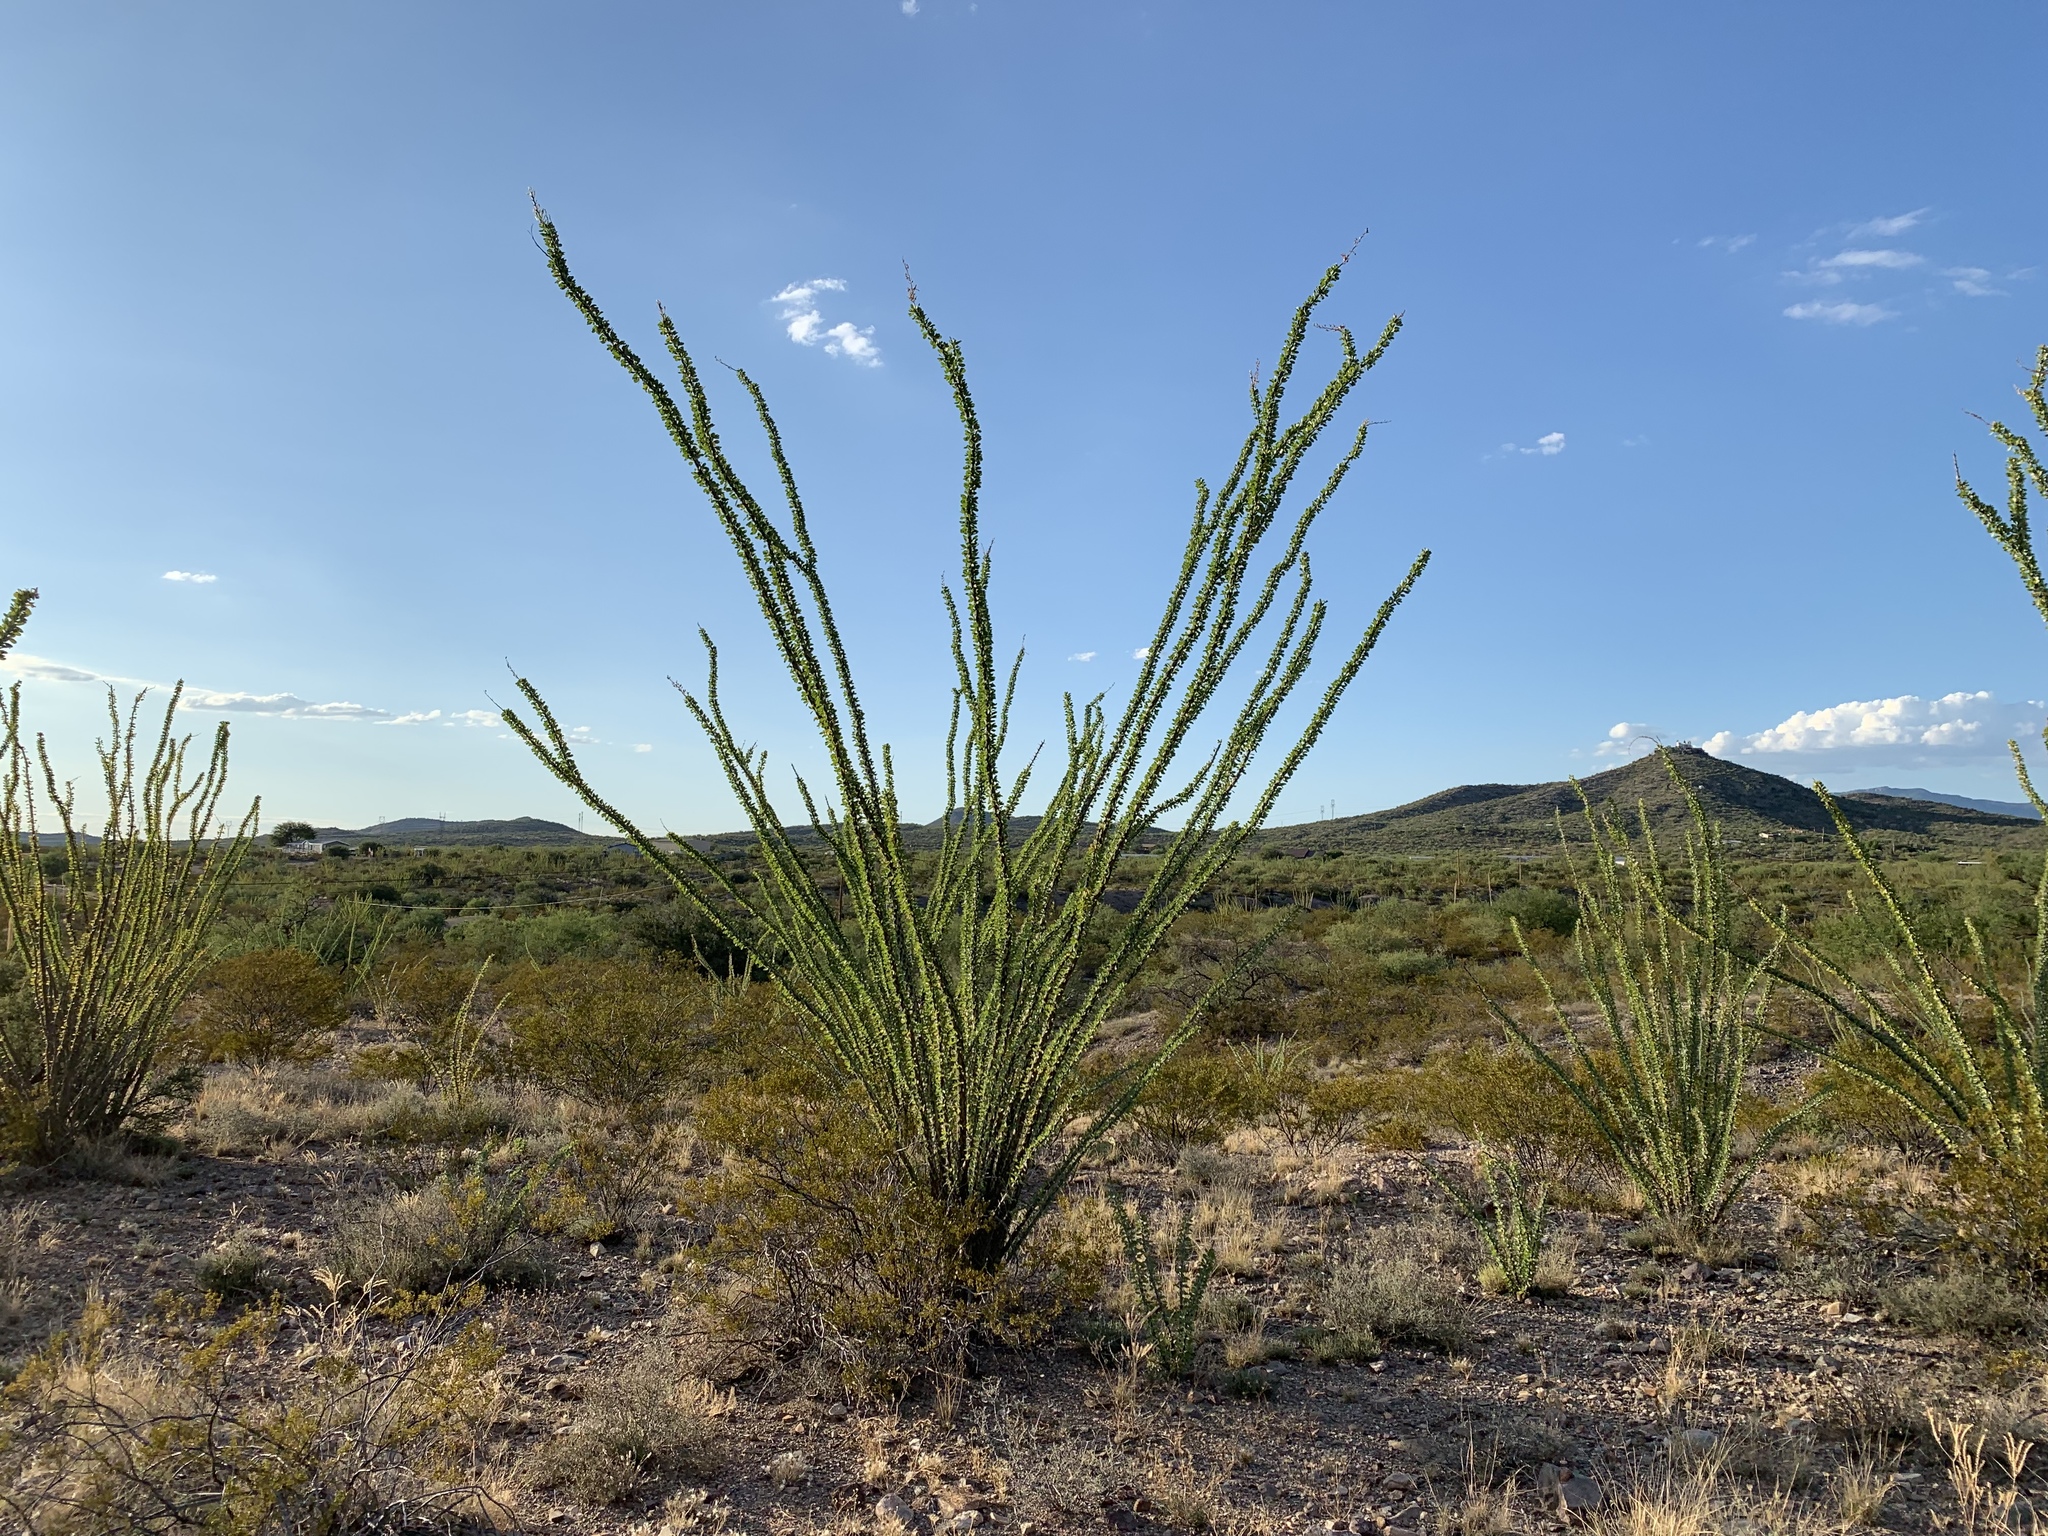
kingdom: Plantae
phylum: Tracheophyta
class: Magnoliopsida
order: Ericales
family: Fouquieriaceae
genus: Fouquieria
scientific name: Fouquieria splendens
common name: Vine-cactus
